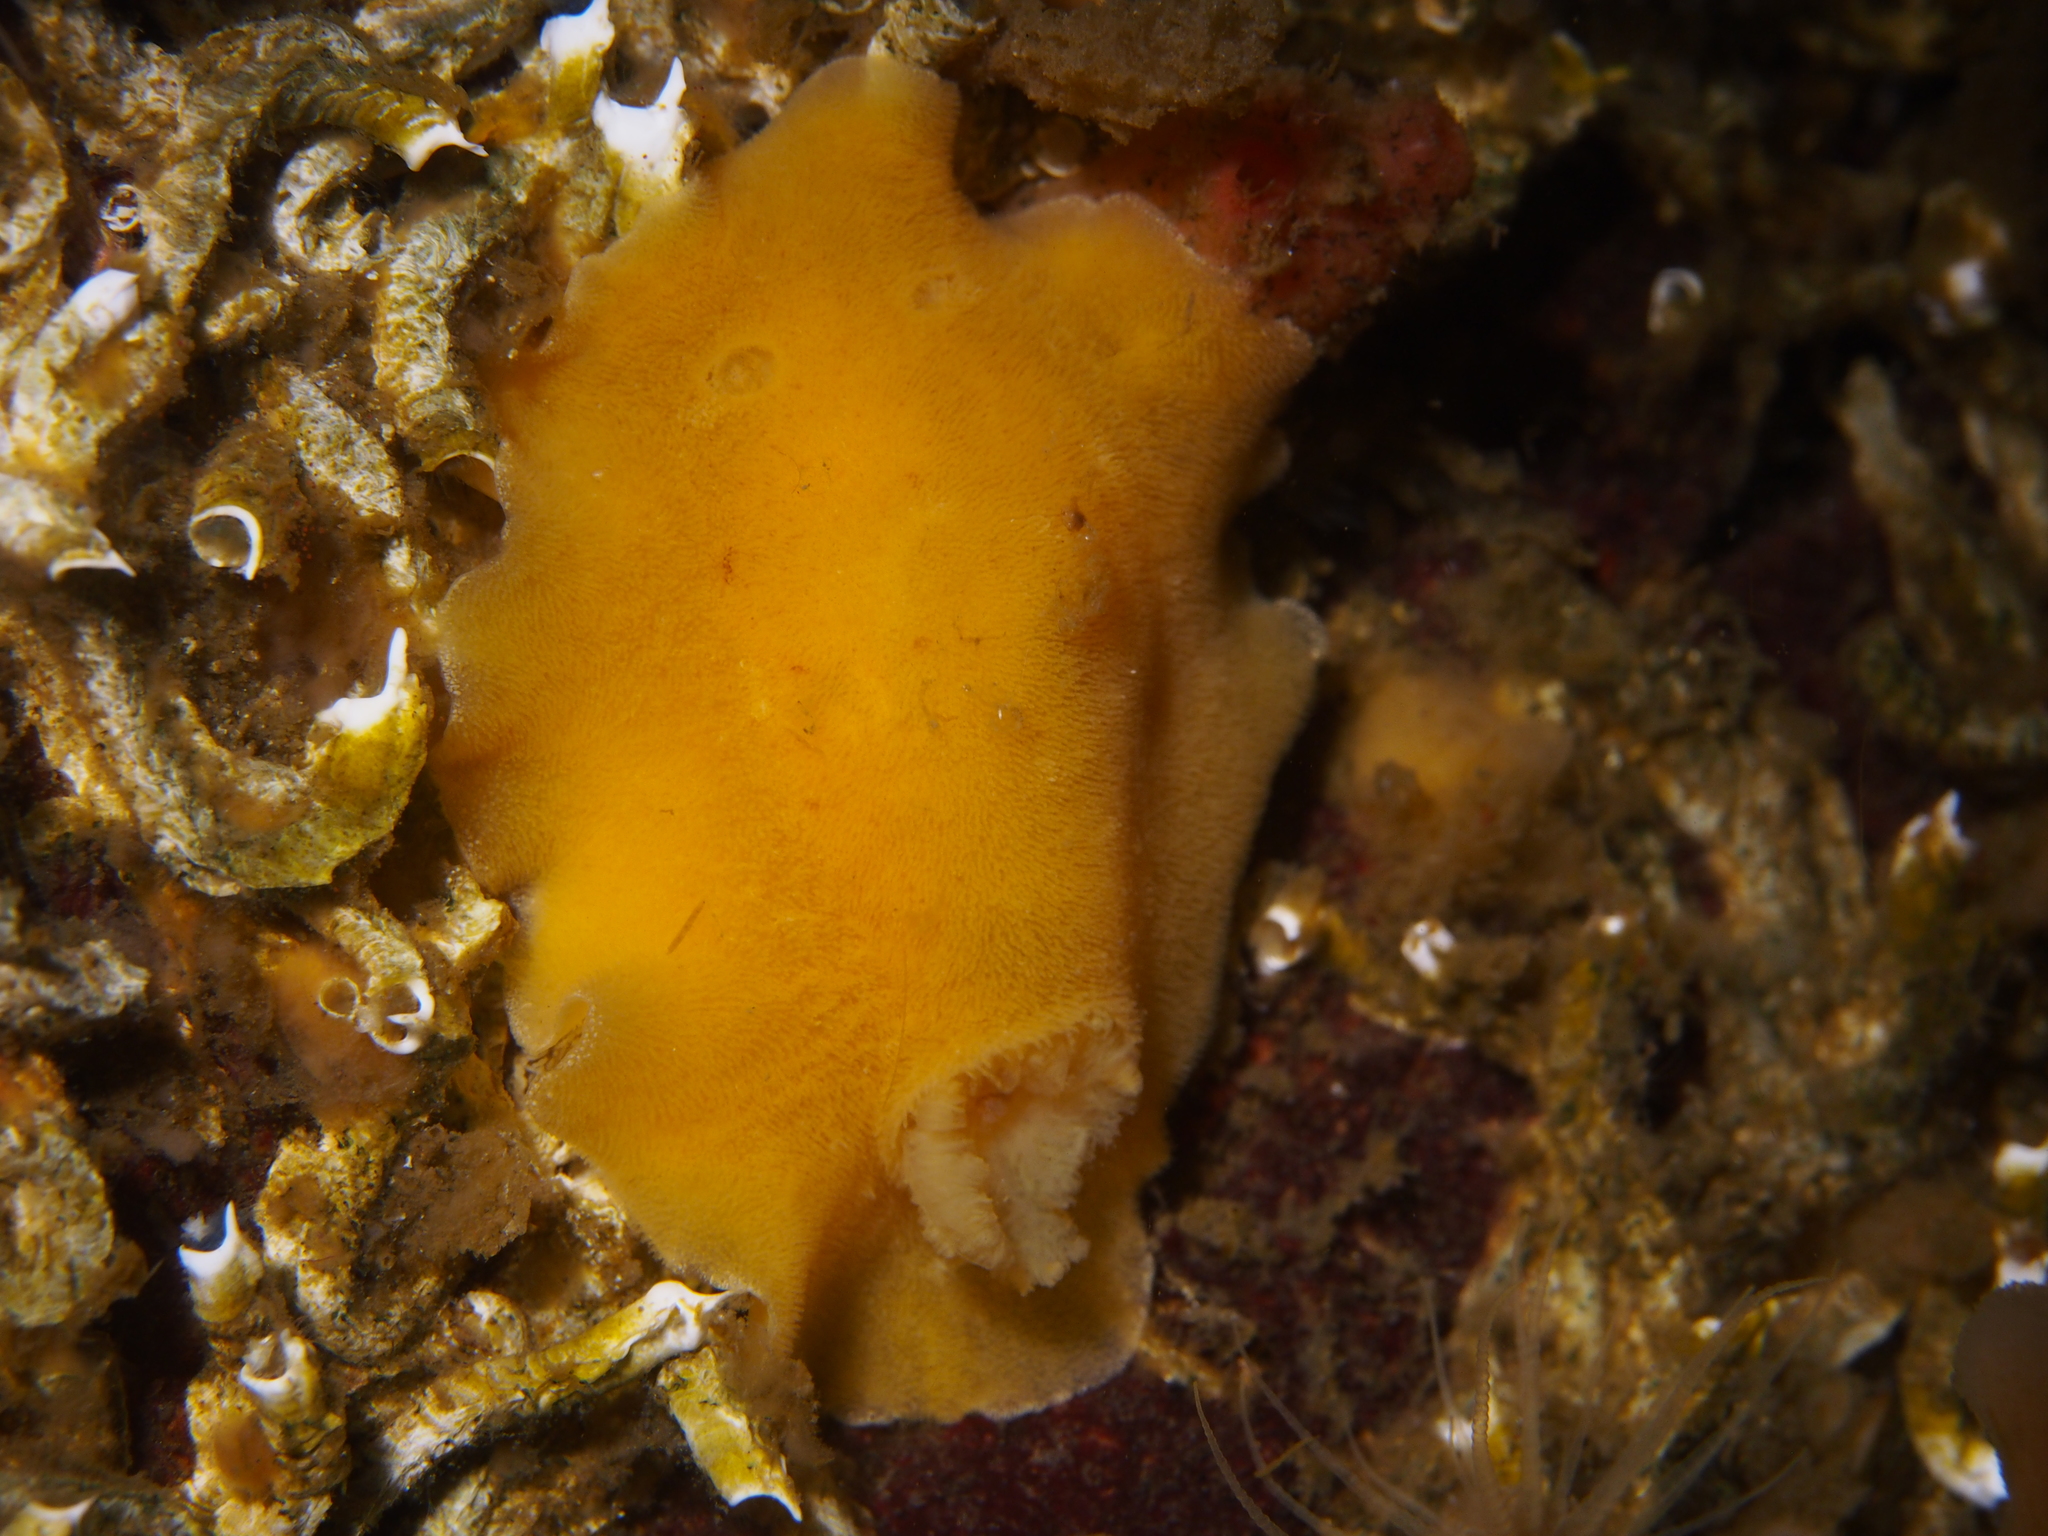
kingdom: Animalia
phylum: Mollusca
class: Gastropoda
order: Nudibranchia
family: Discodorididae
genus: Jorunna
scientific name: Jorunna tomentosa
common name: Grey sea slug
